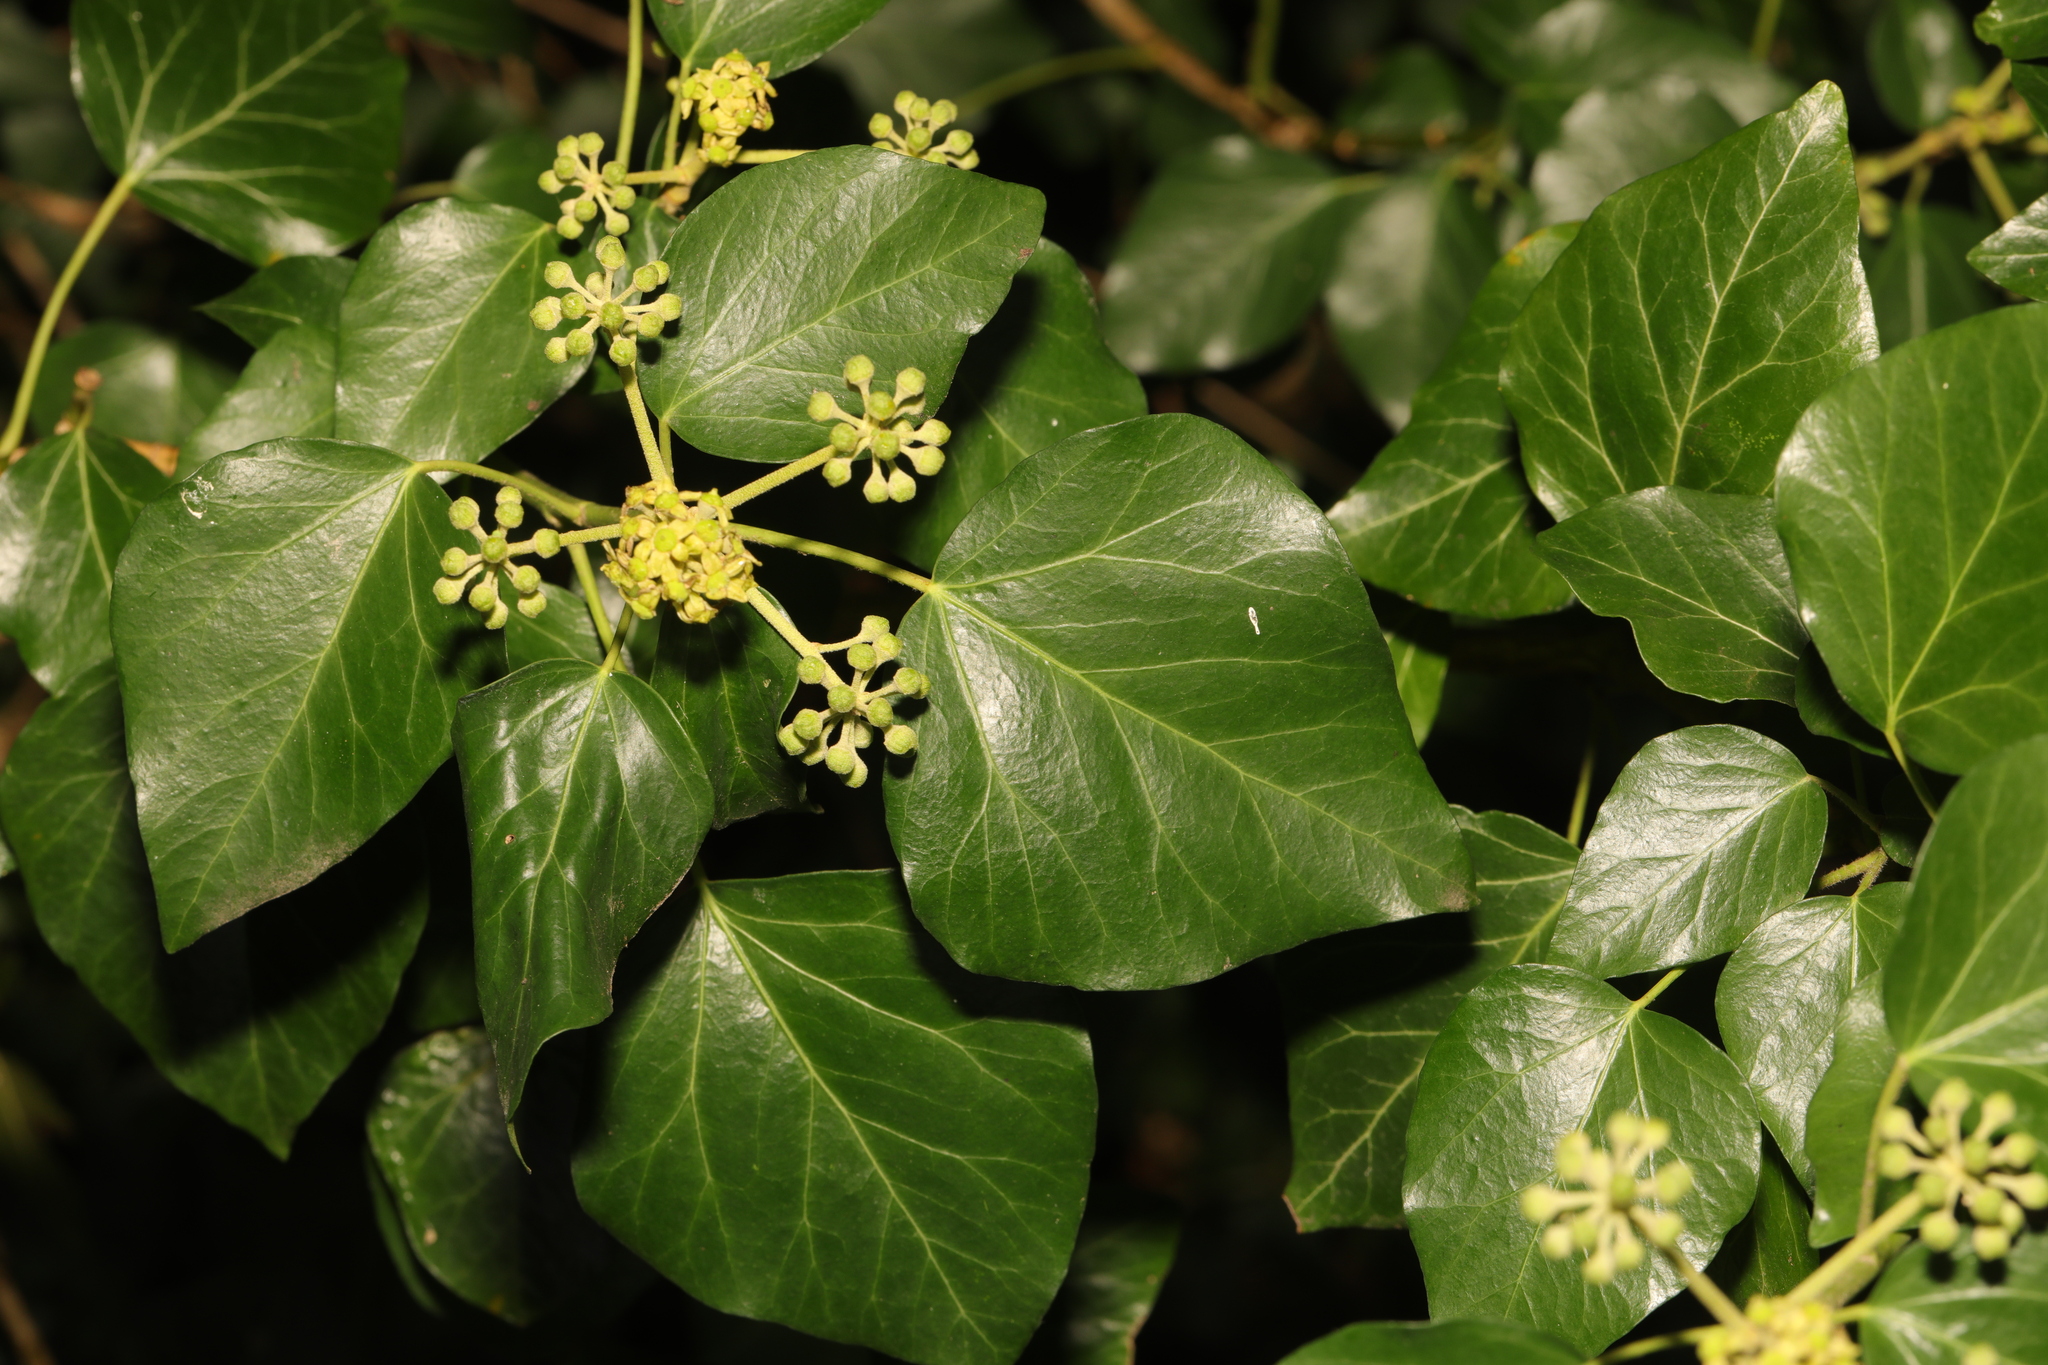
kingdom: Plantae
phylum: Tracheophyta
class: Magnoliopsida
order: Apiales
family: Araliaceae
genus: Hedera
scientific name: Hedera helix
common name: Ivy
